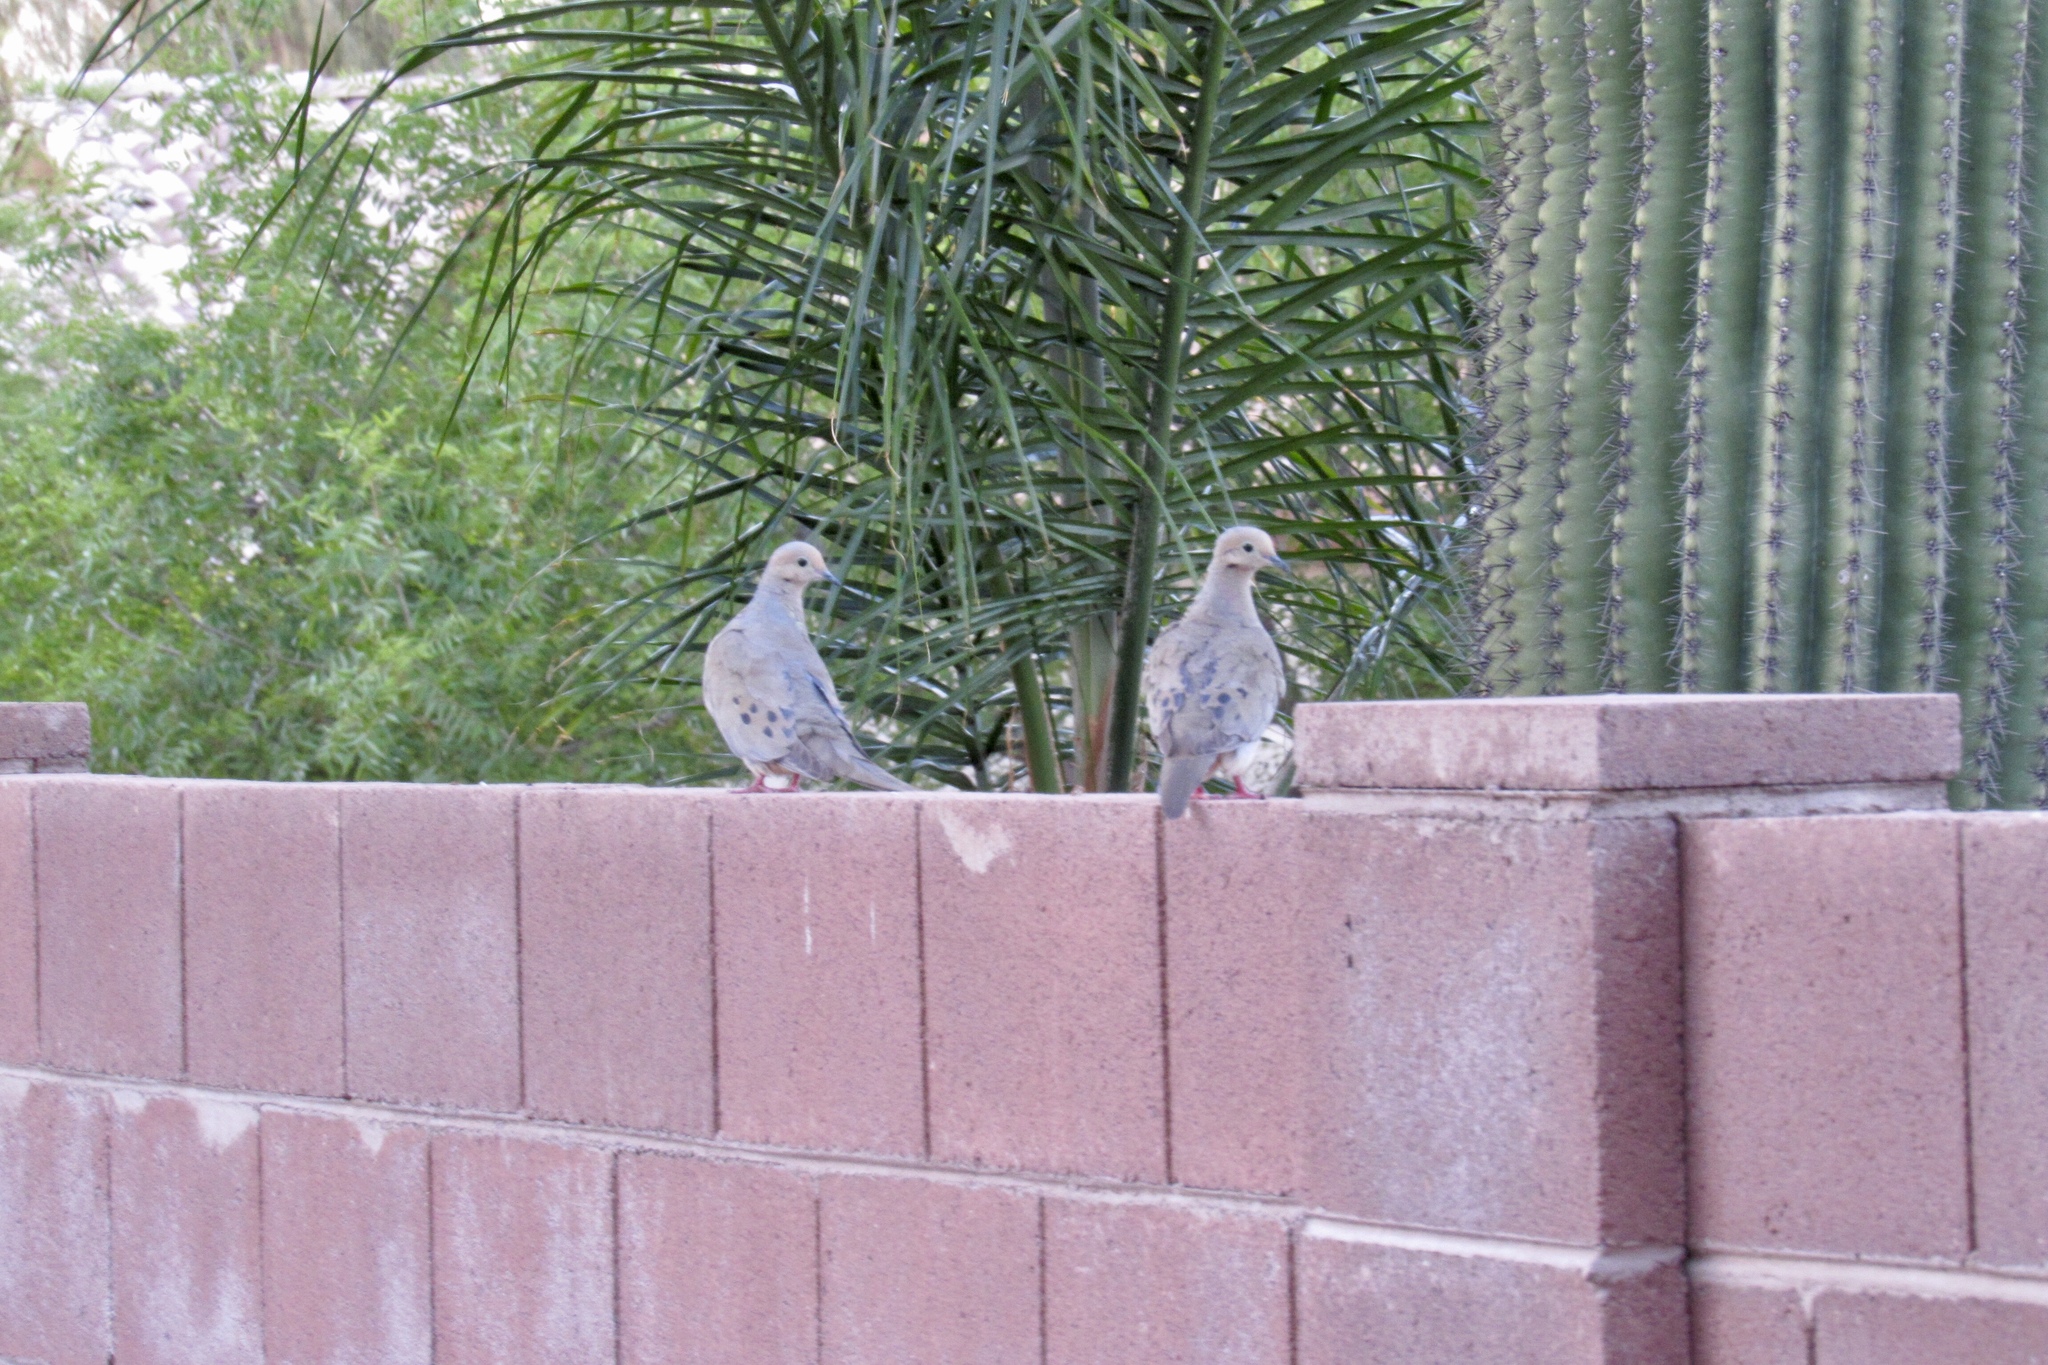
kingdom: Animalia
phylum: Chordata
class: Aves
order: Columbiformes
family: Columbidae
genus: Zenaida
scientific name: Zenaida macroura
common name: Mourning dove
